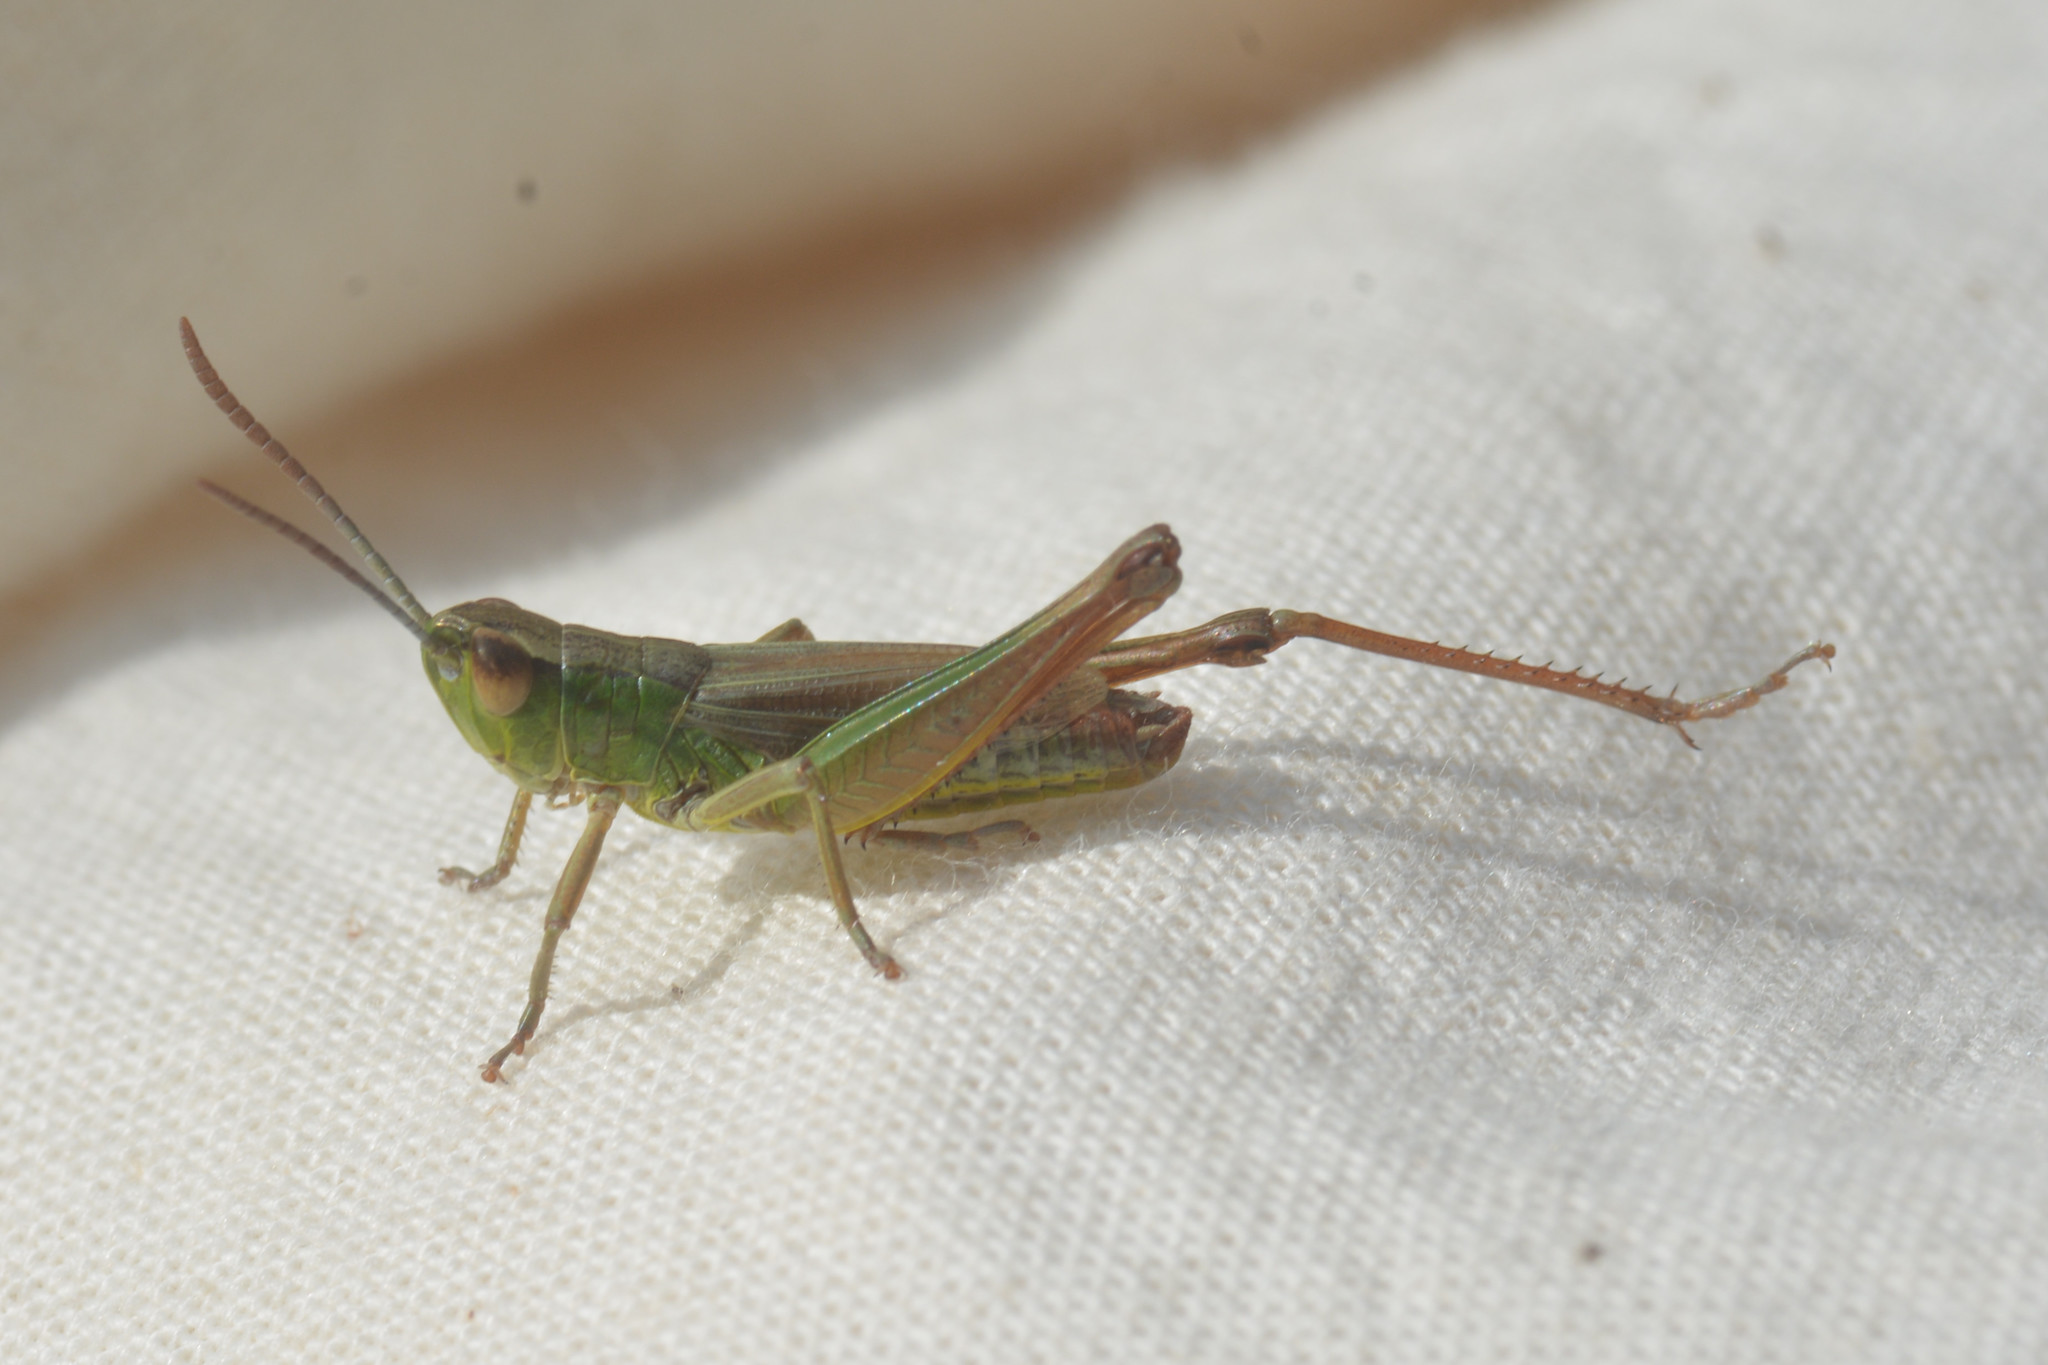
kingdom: Animalia
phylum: Arthropoda
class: Insecta
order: Orthoptera
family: Acrididae
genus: Pseudochorthippus
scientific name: Pseudochorthippus parallelus
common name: Meadow grasshopper
